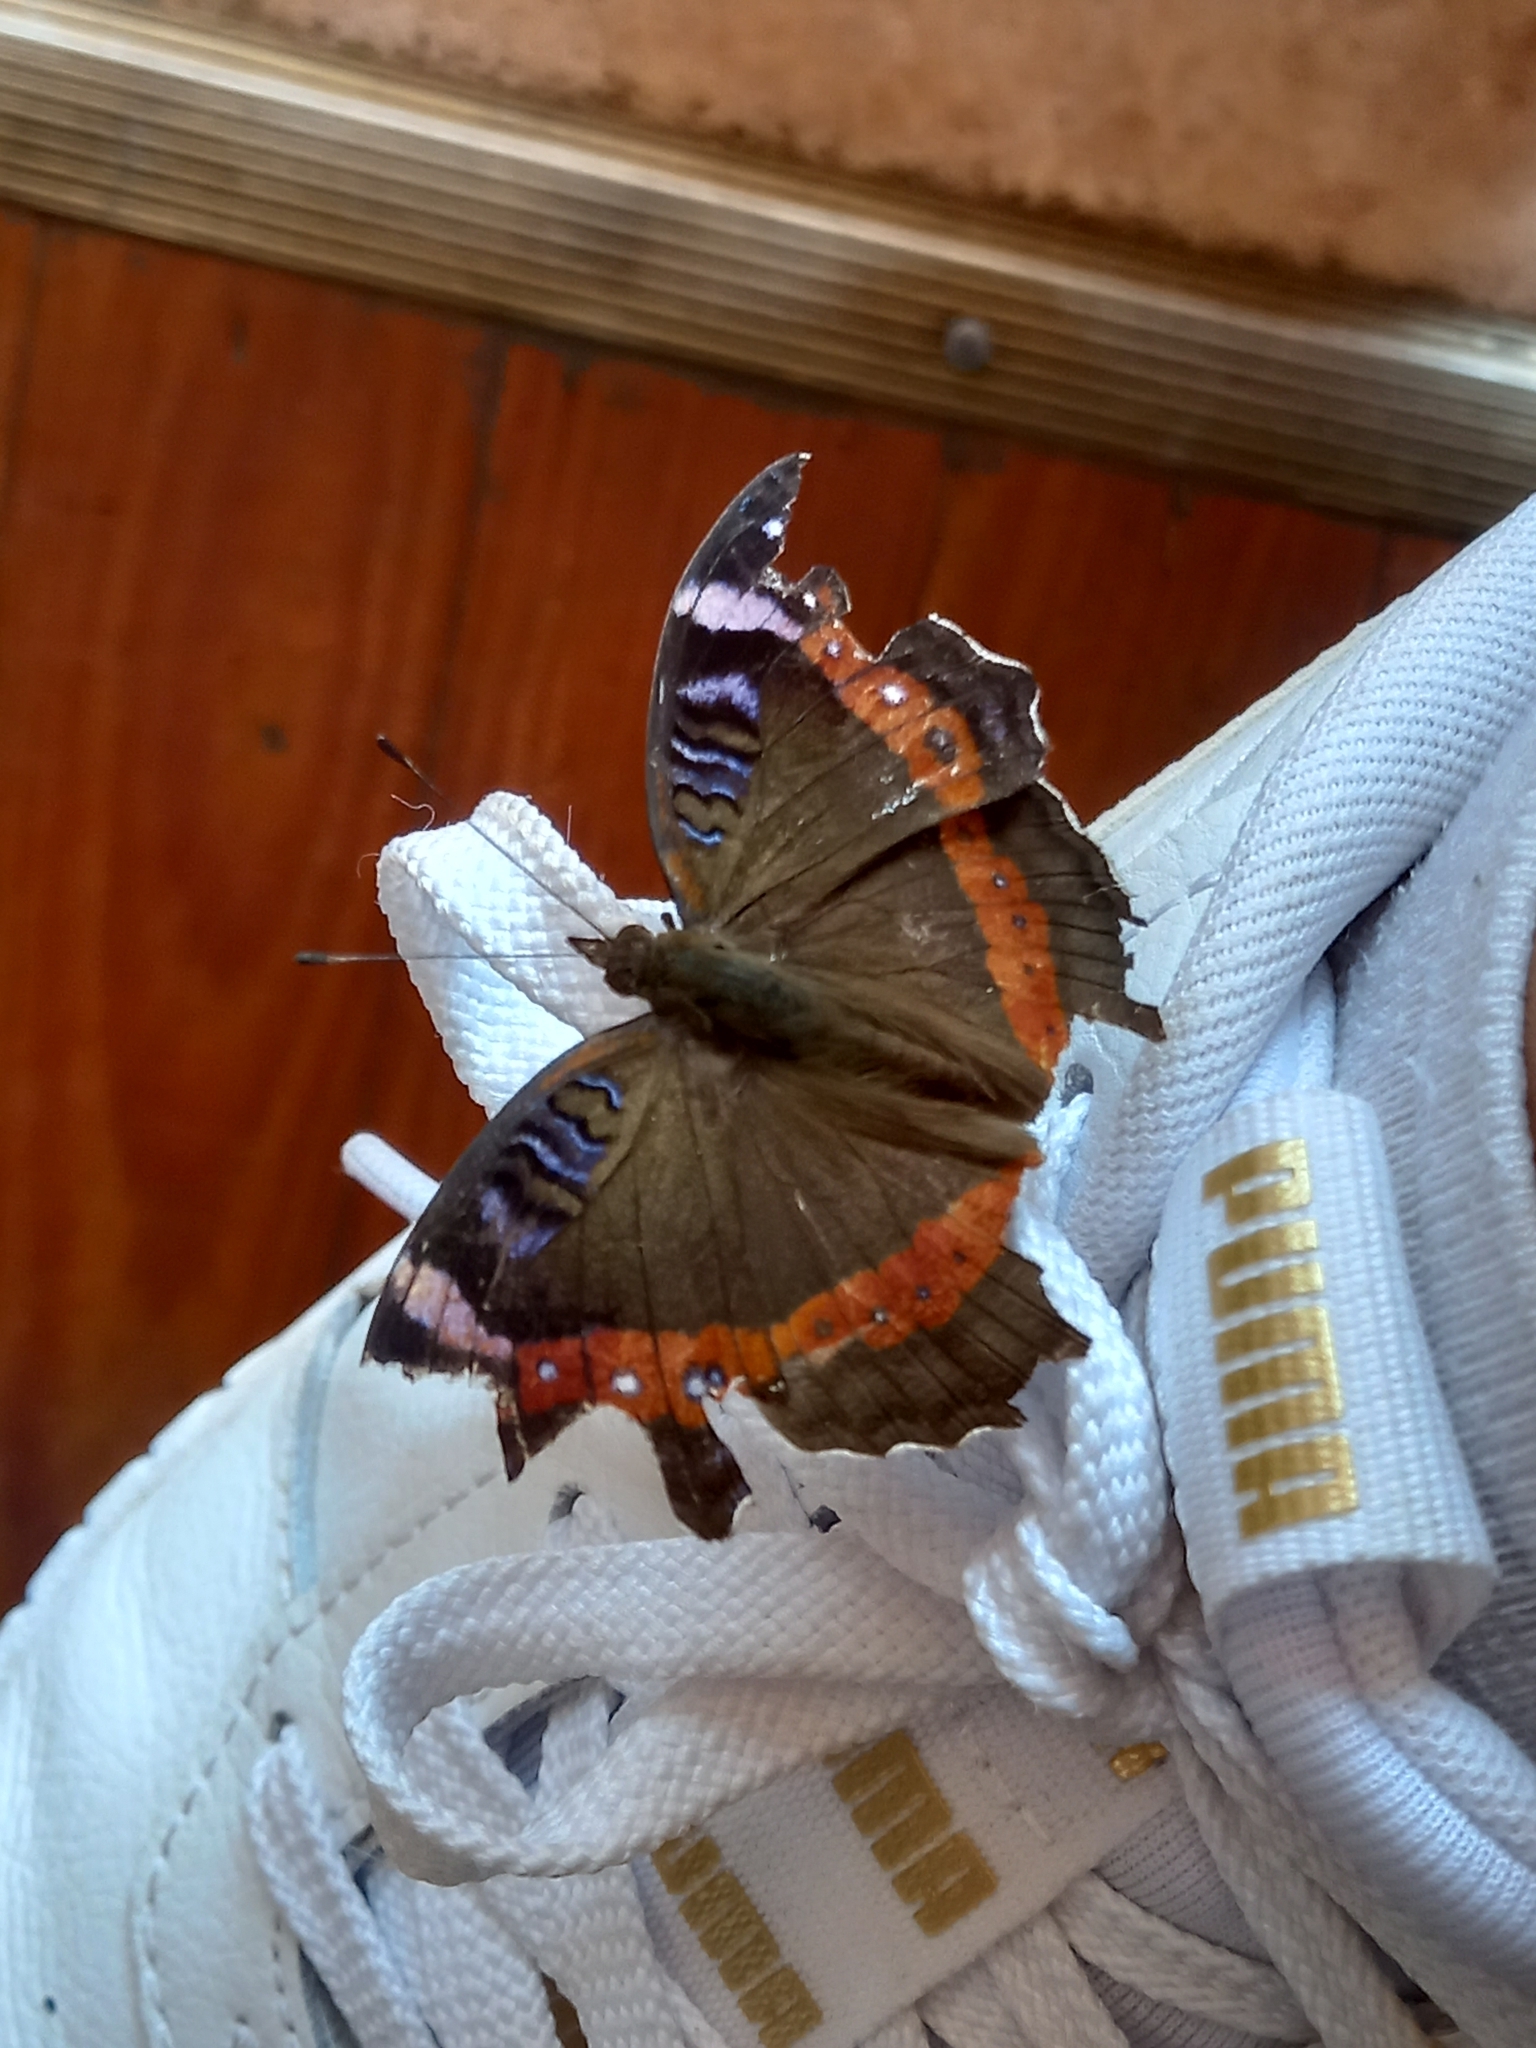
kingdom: Animalia
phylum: Arthropoda
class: Insecta
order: Lepidoptera
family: Nymphalidae
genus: Junonia
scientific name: Junonia archesia
